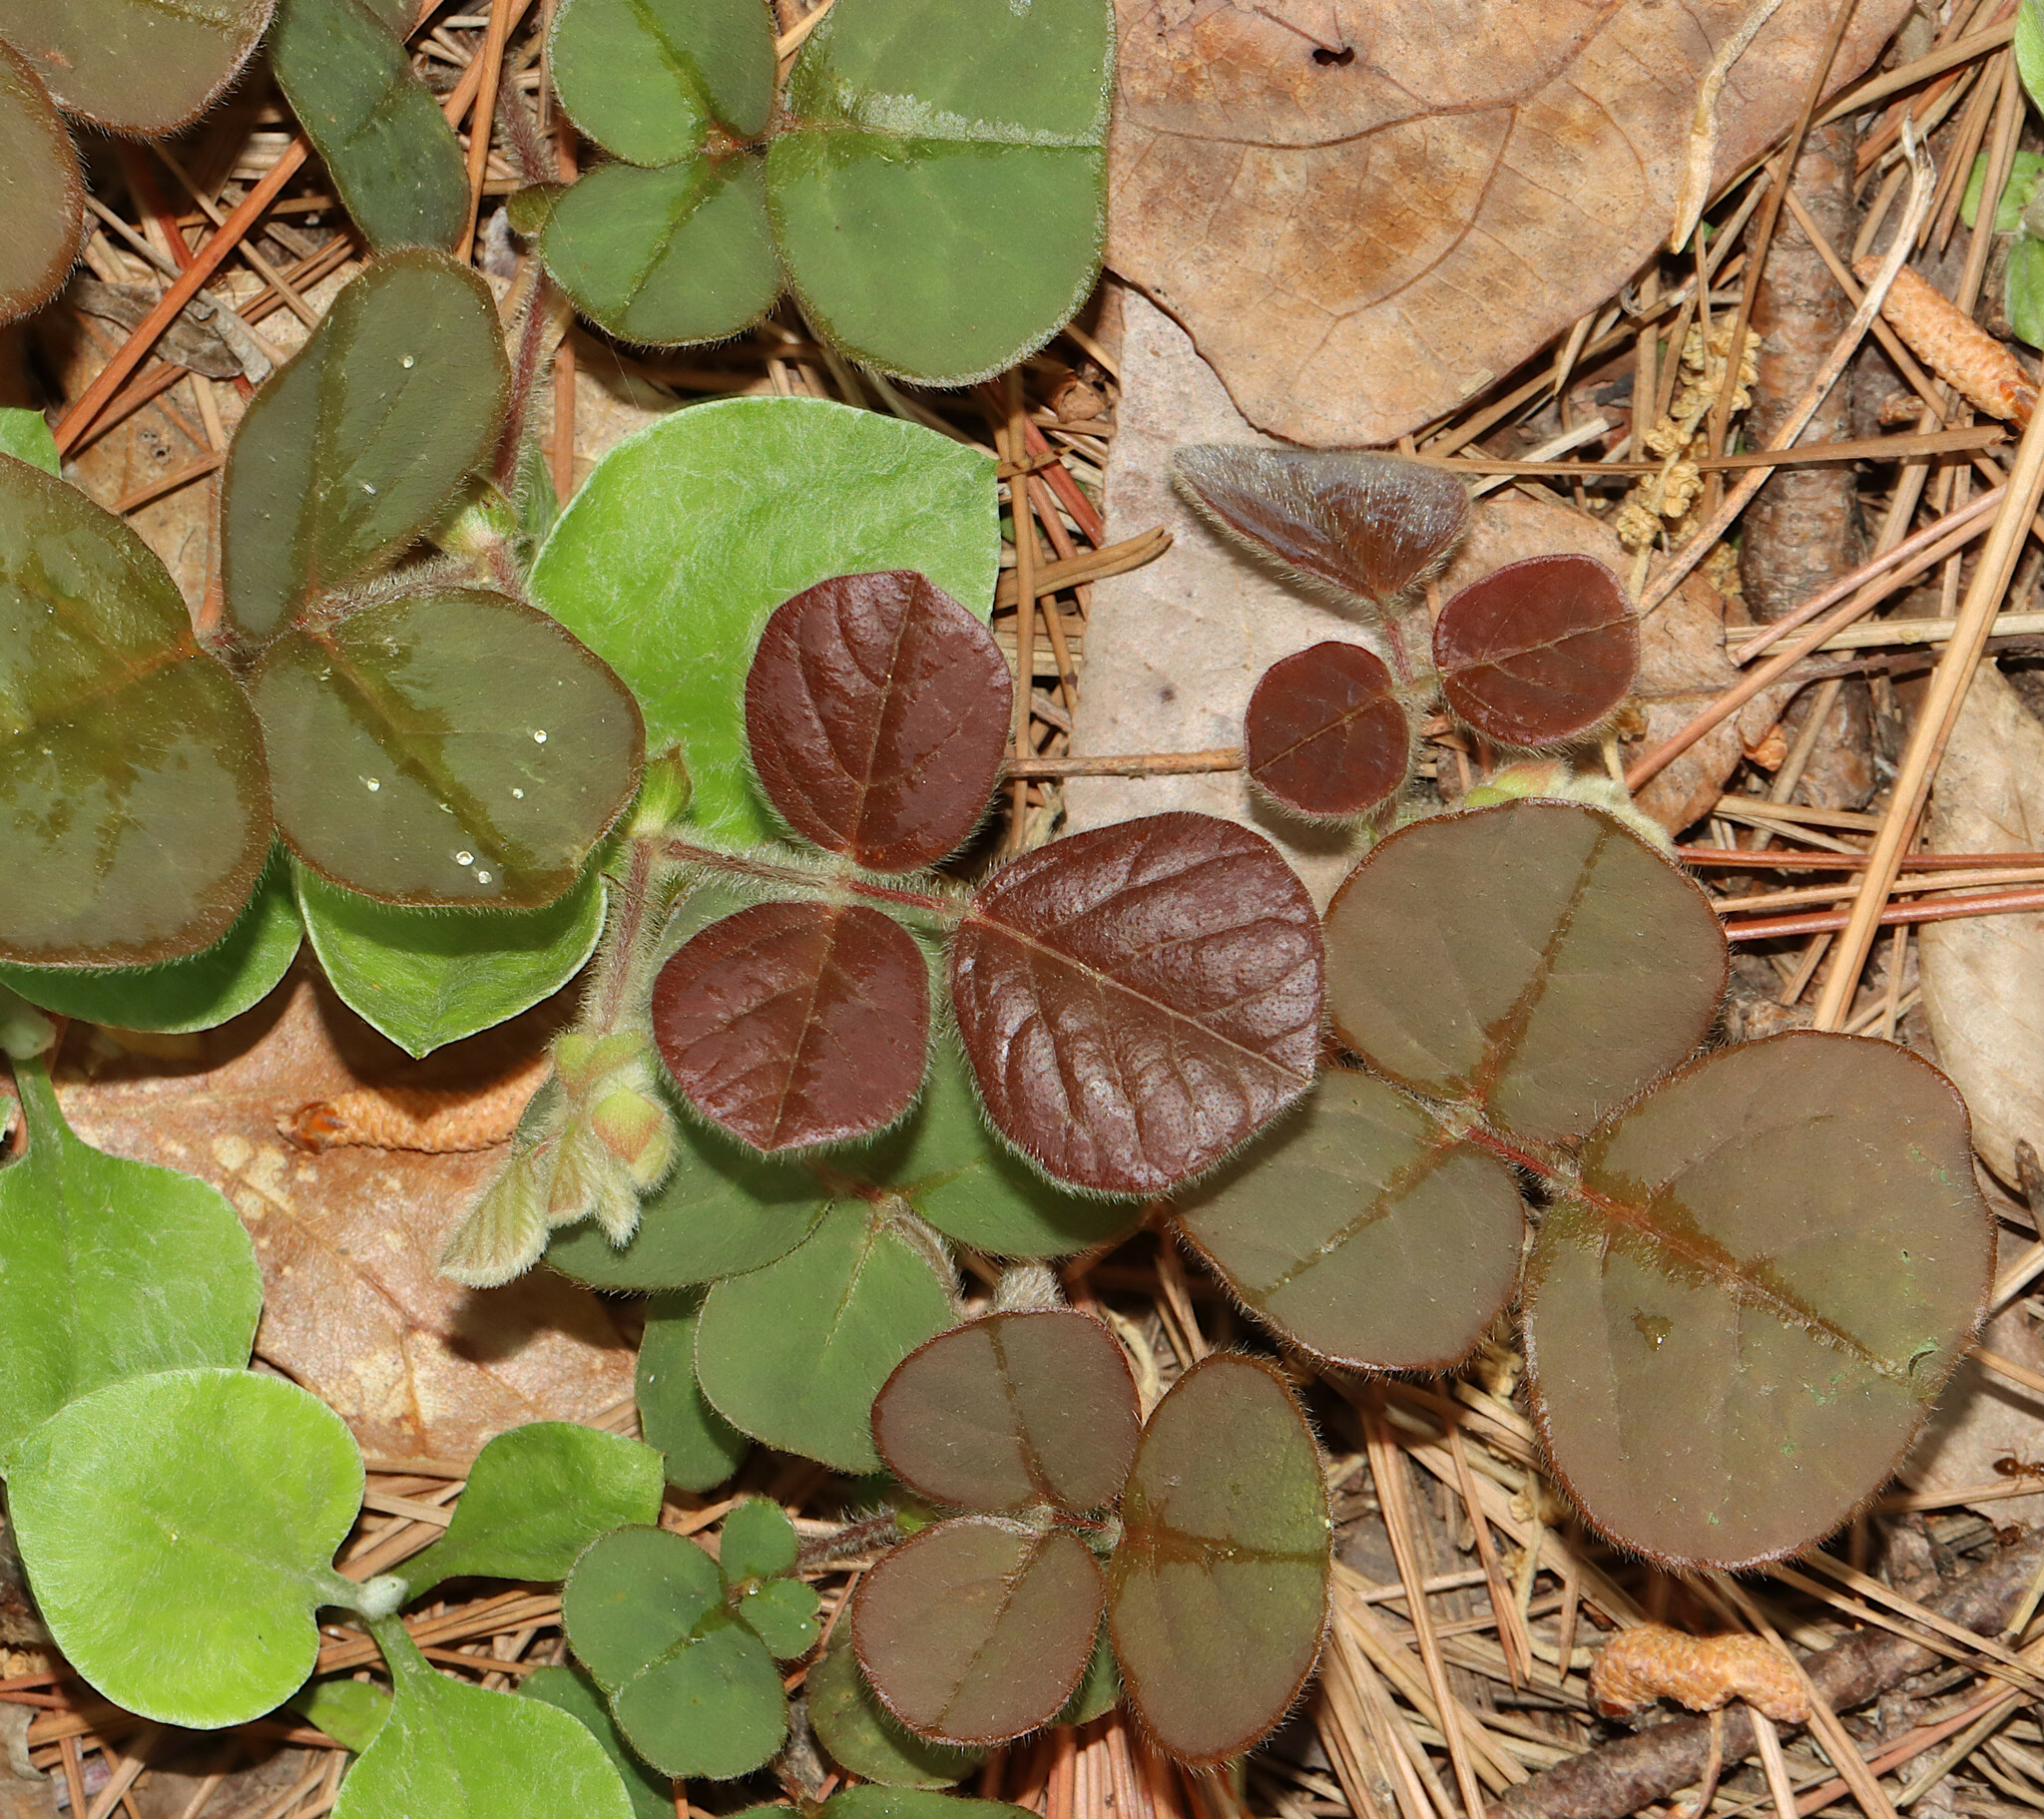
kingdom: Plantae
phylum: Tracheophyta
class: Magnoliopsida
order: Fabales
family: Fabaceae
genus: Desmodium
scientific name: Desmodium rotundifolium
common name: Dollarleaf
